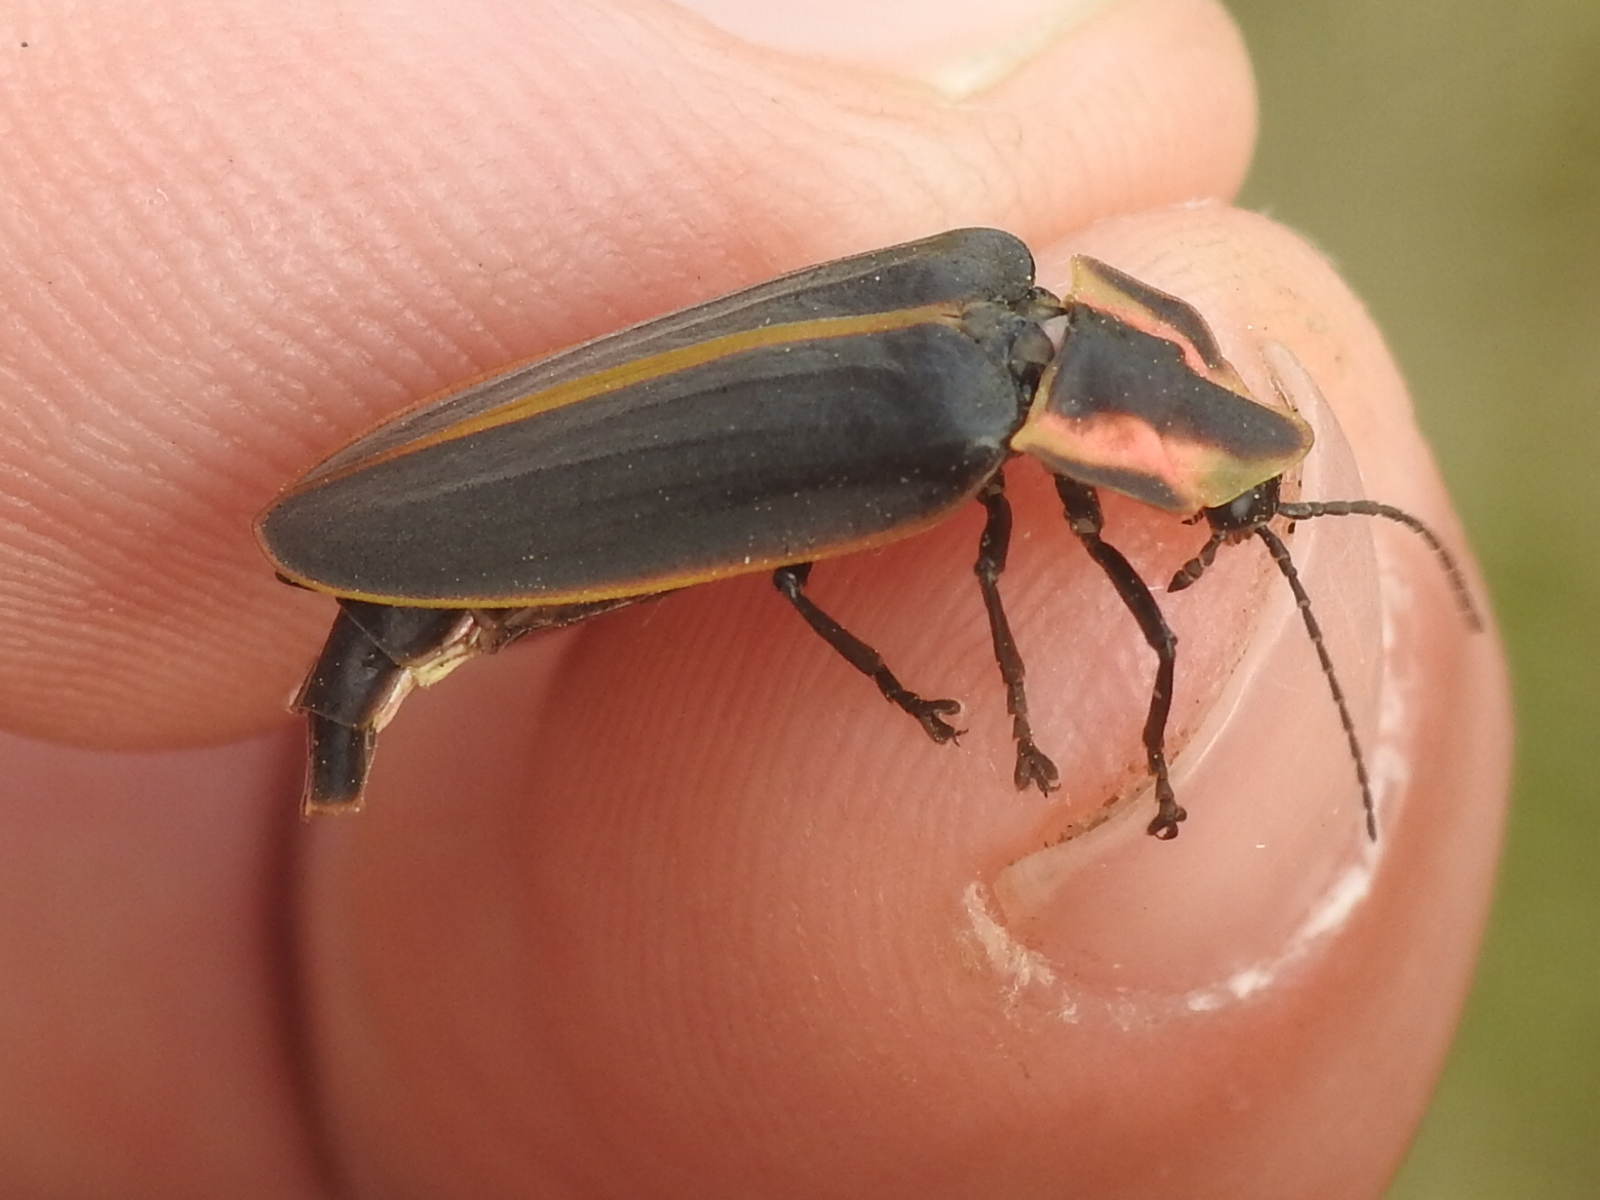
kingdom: Animalia
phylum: Arthropoda
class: Insecta
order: Coleoptera
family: Lampyridae
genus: Pyractomena
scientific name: Pyractomena borealis
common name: Northern firefly
